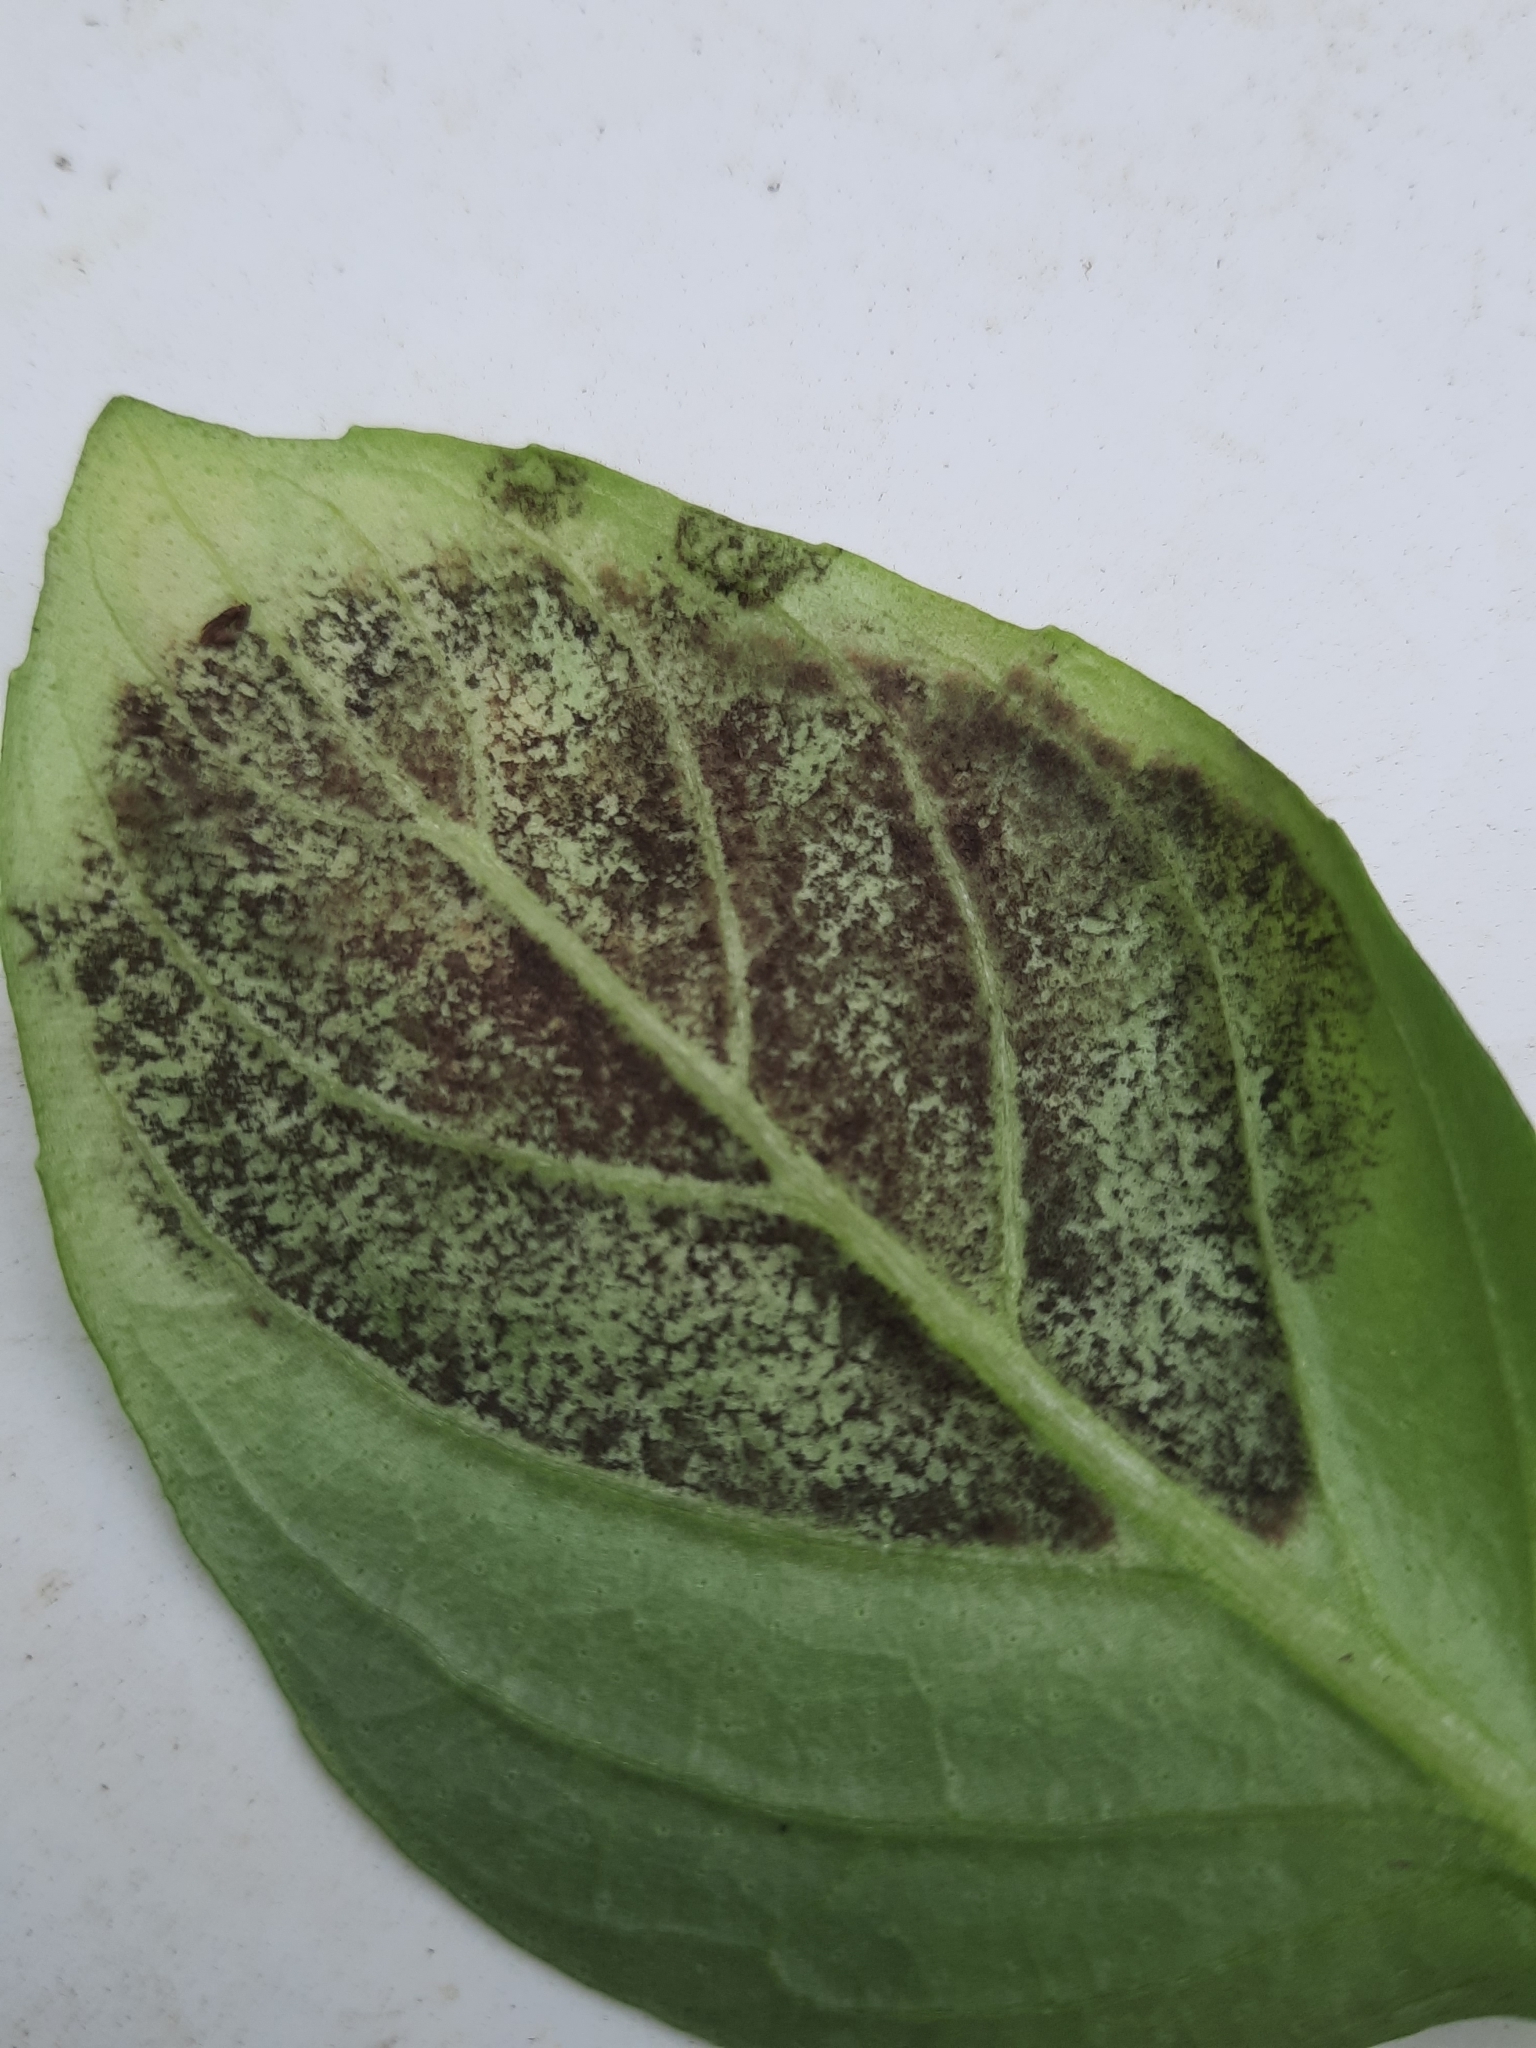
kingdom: Chromista
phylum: Oomycota
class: Peronosporea
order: Peronosporales
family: Peronosporaceae
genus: Peronospora
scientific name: Peronospora belbahrii
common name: Basil downy mildew
